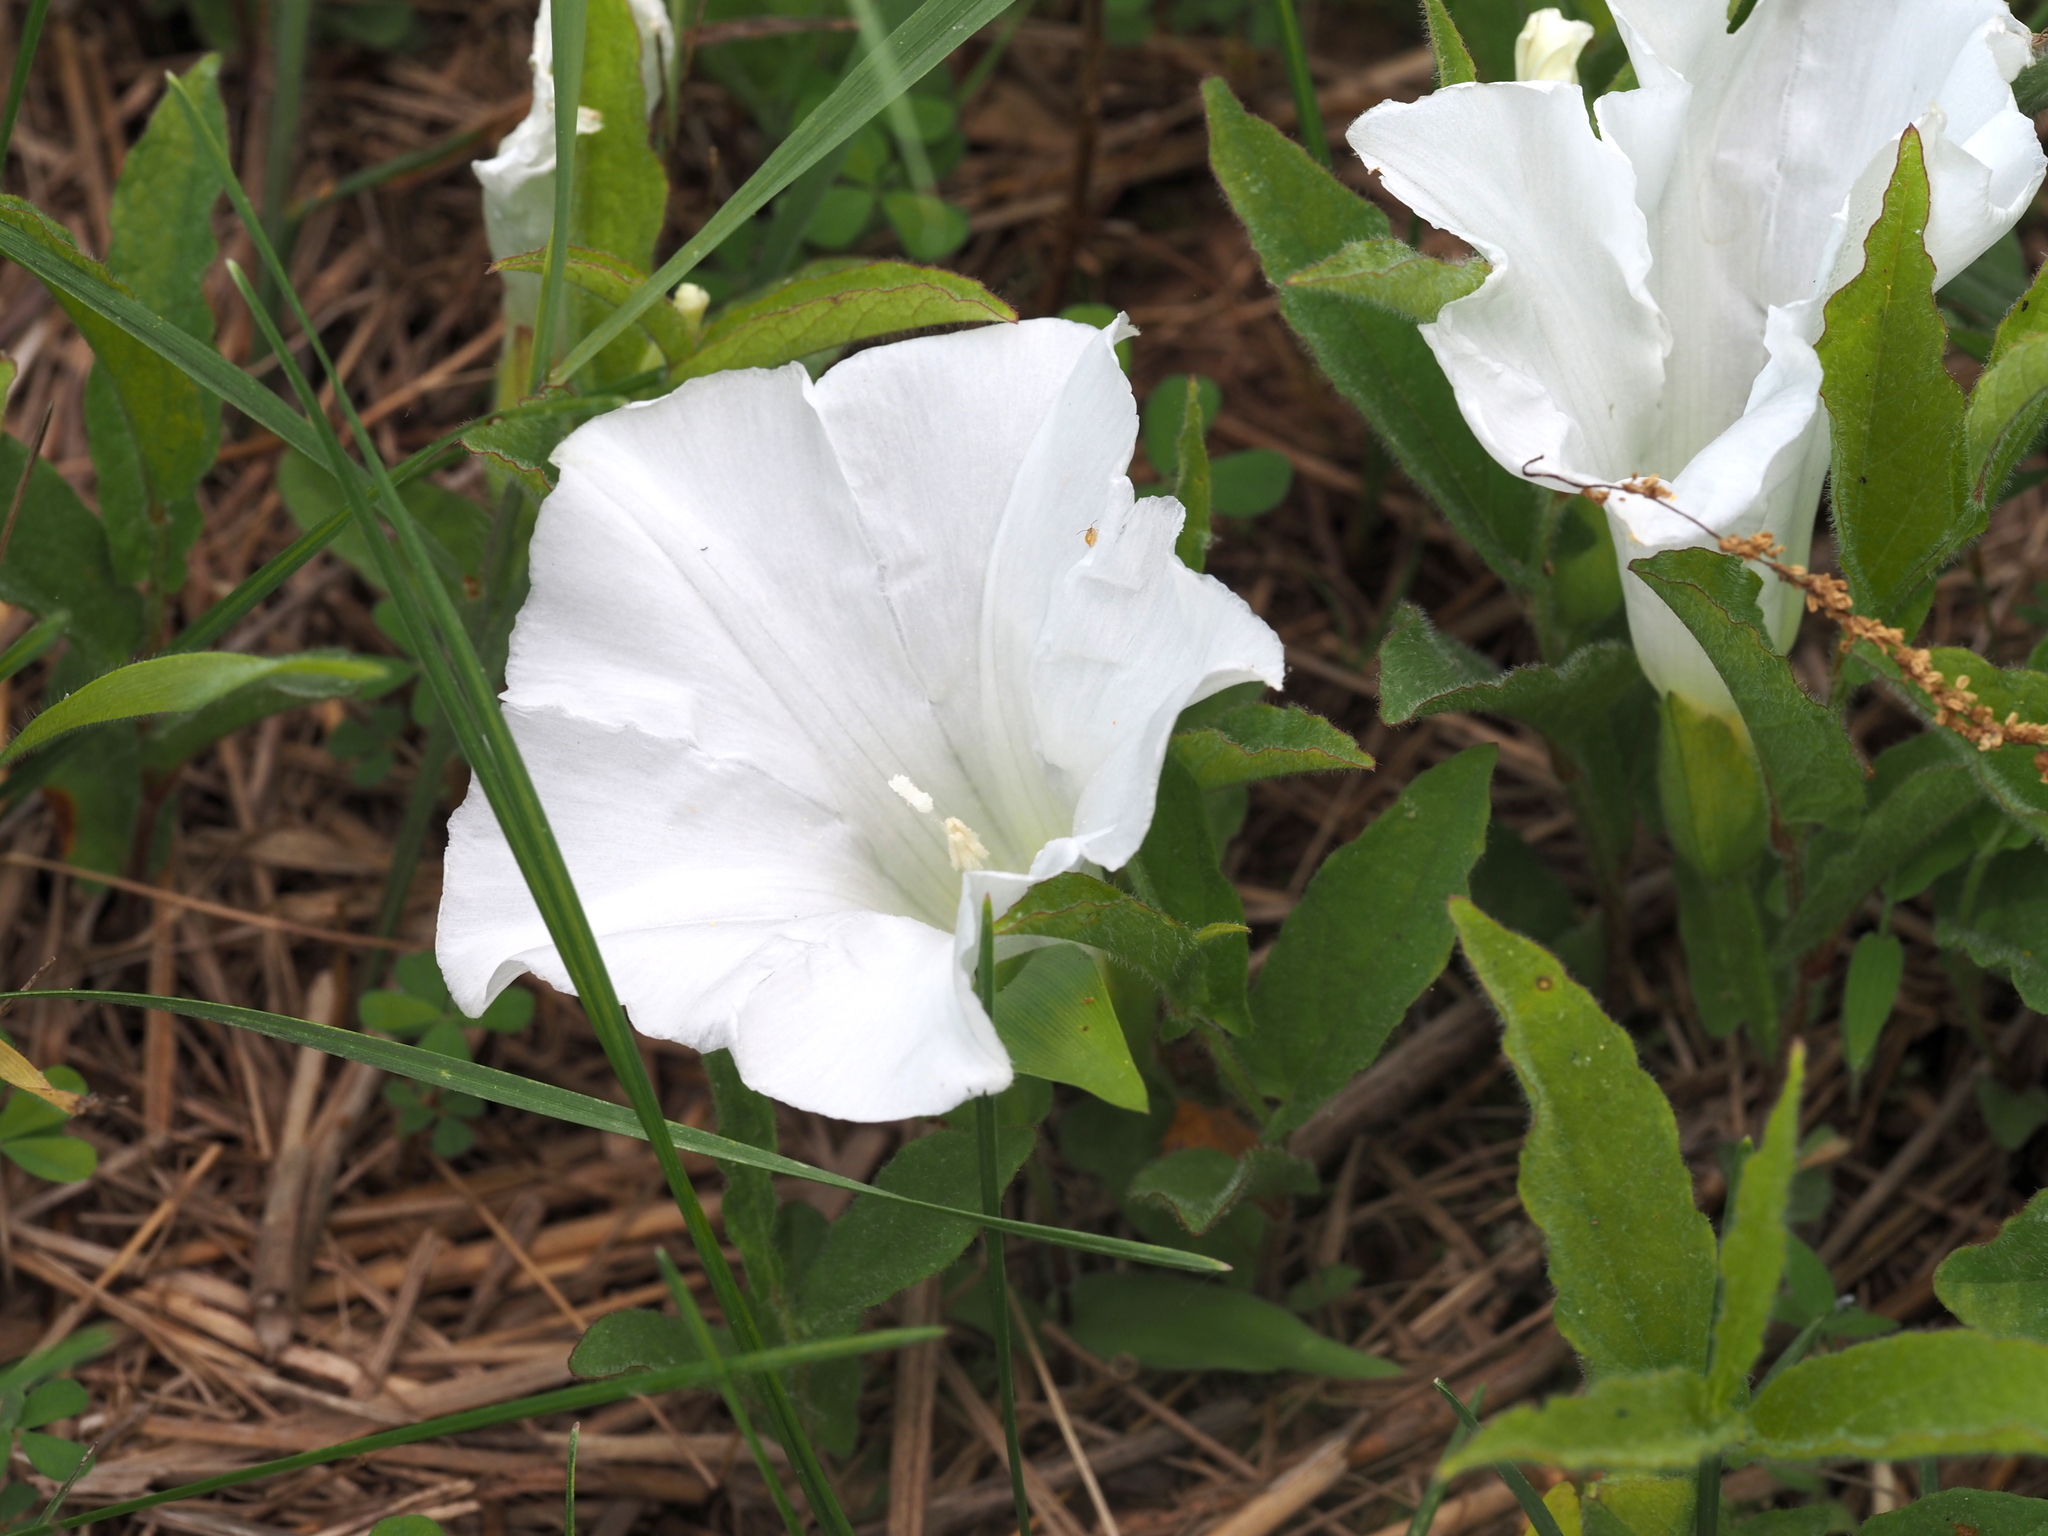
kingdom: Plantae
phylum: Tracheophyta
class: Magnoliopsida
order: Solanales
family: Convolvulaceae
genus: Calystegia
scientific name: Calystegia spithamaea
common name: Dwarf bindweed
